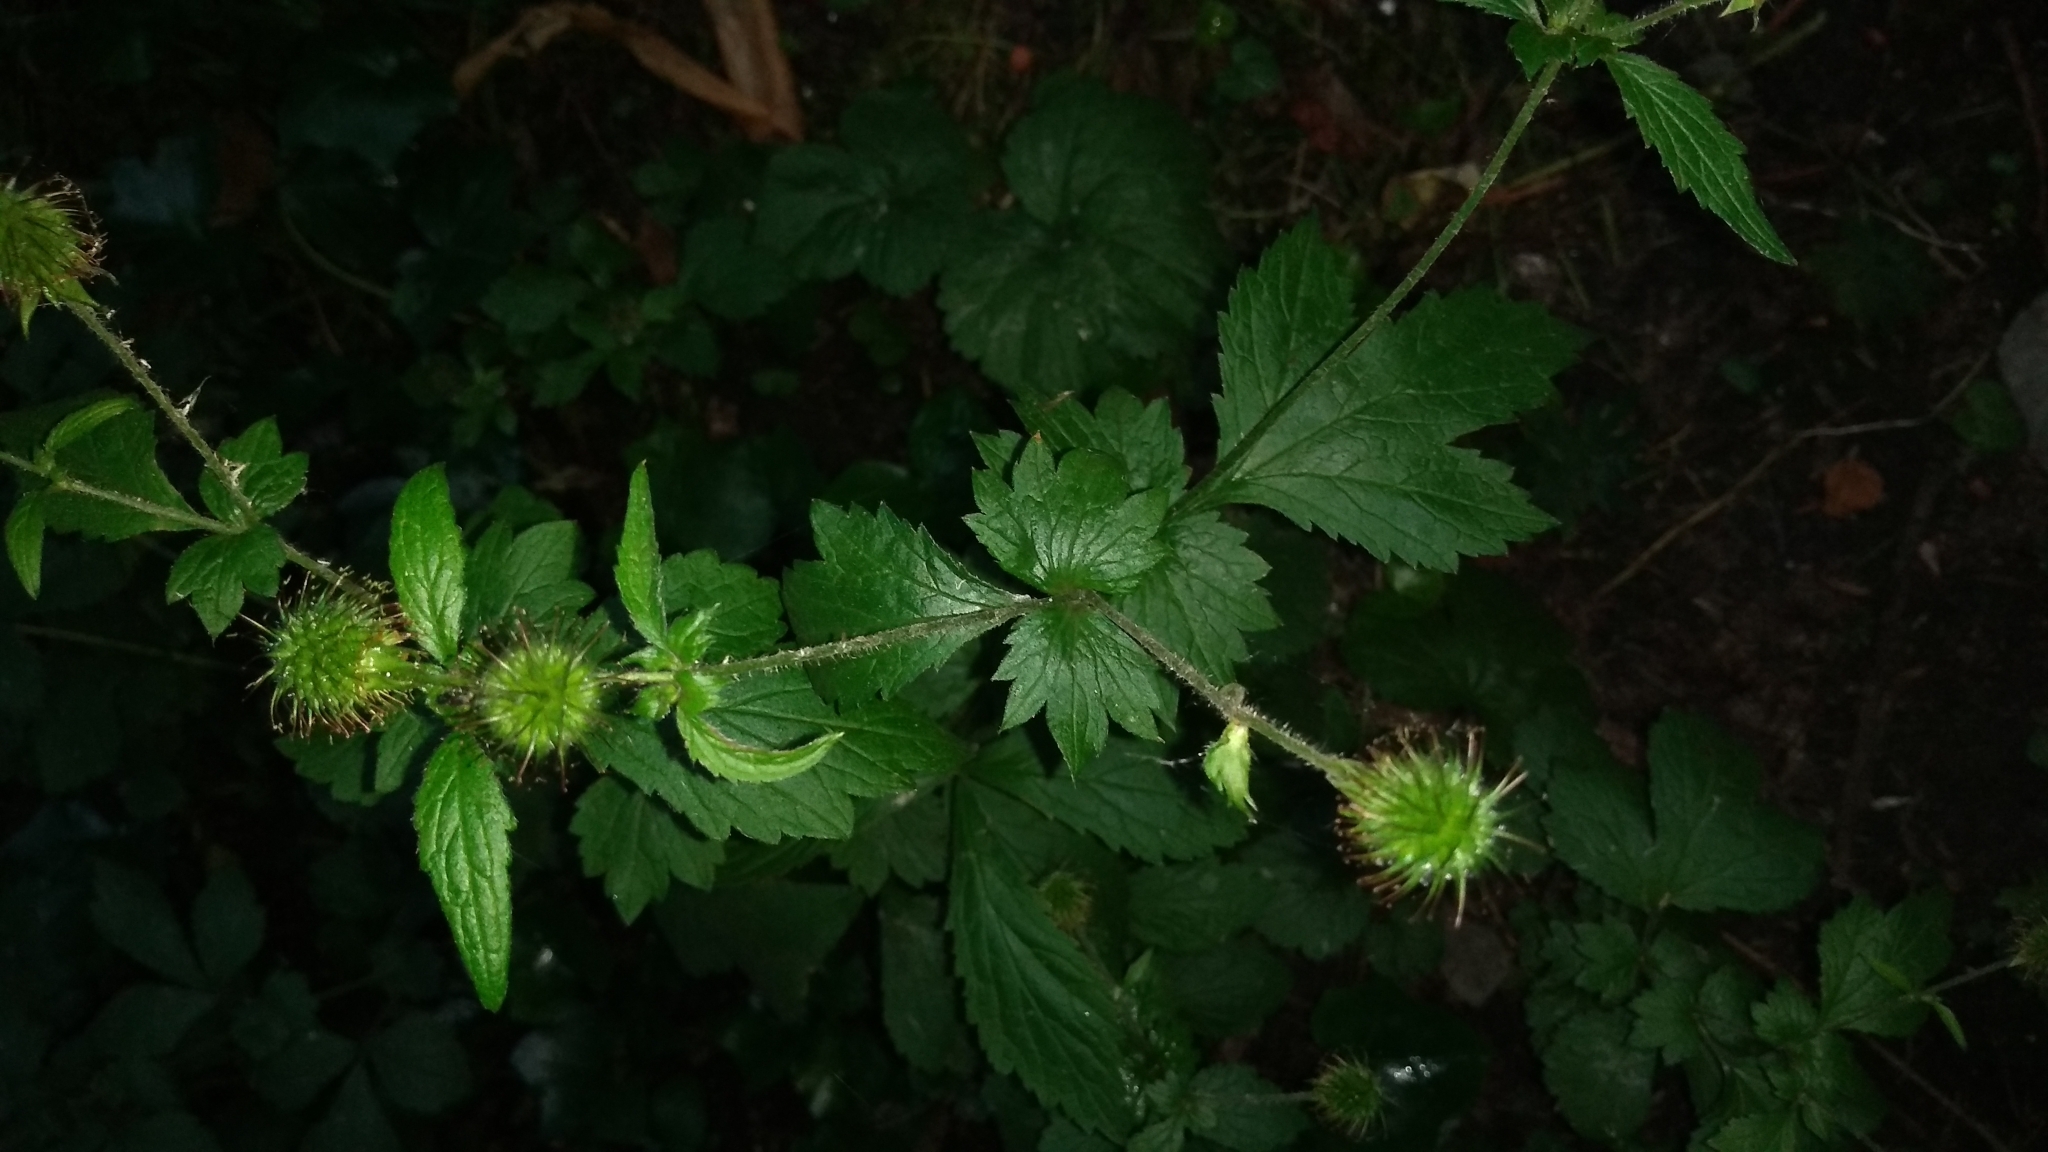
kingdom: Plantae
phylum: Tracheophyta
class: Magnoliopsida
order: Rosales
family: Rosaceae
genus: Geum
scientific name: Geum urbanum
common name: Wood avens
